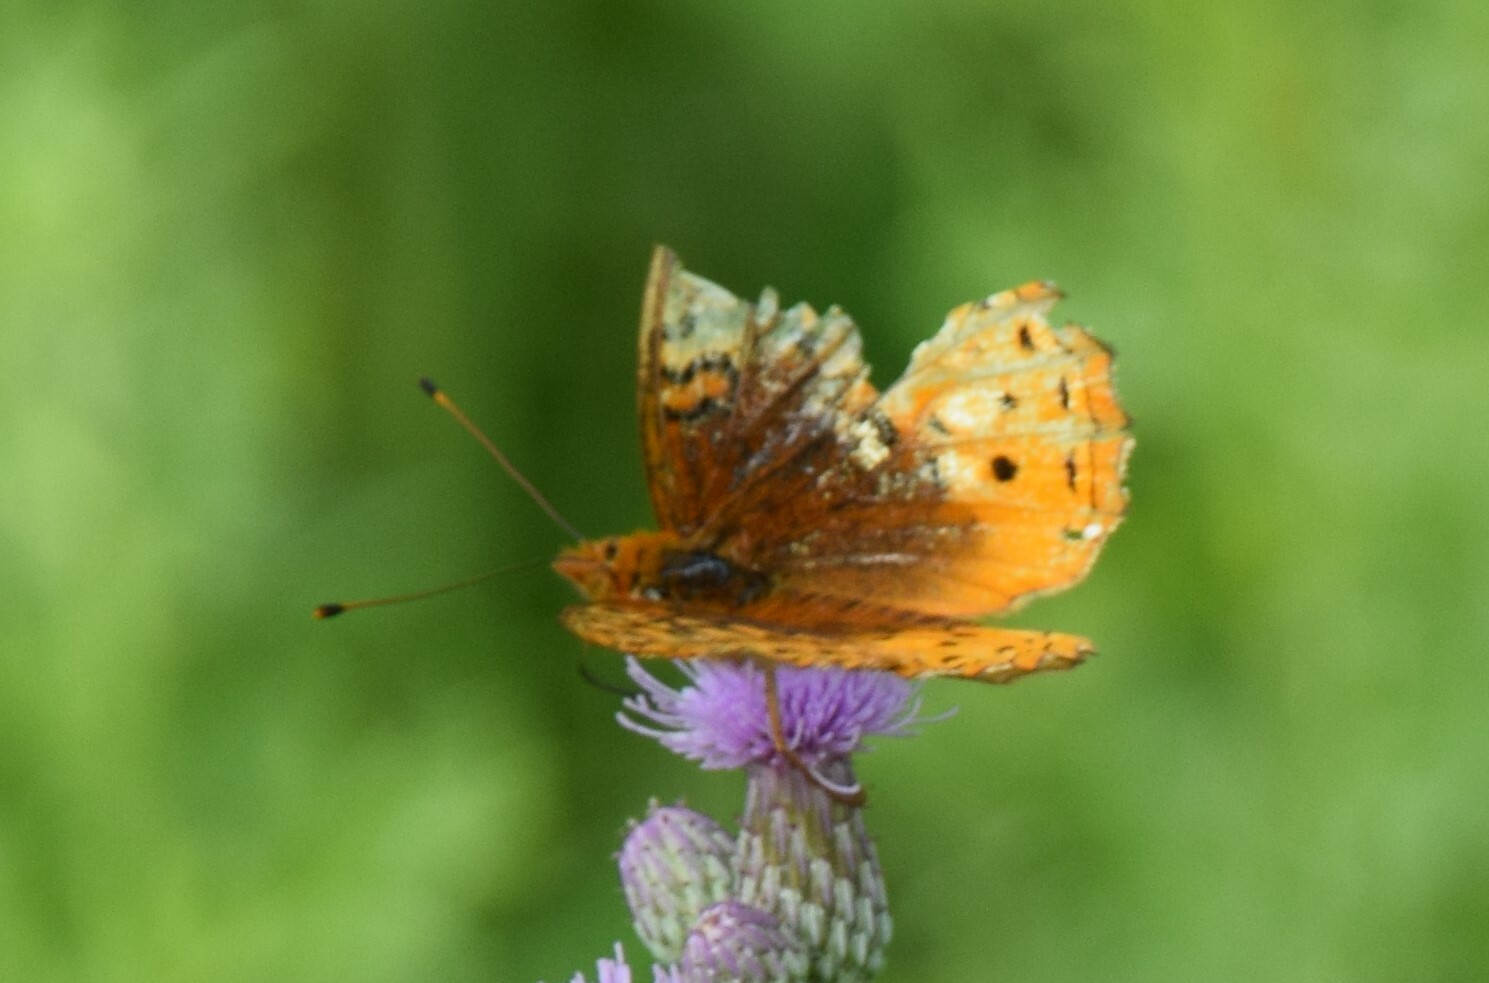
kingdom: Animalia
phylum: Arthropoda
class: Insecta
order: Lepidoptera
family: Nymphalidae
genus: Speyeria
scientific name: Speyeria cybele
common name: Great spangled fritillary
